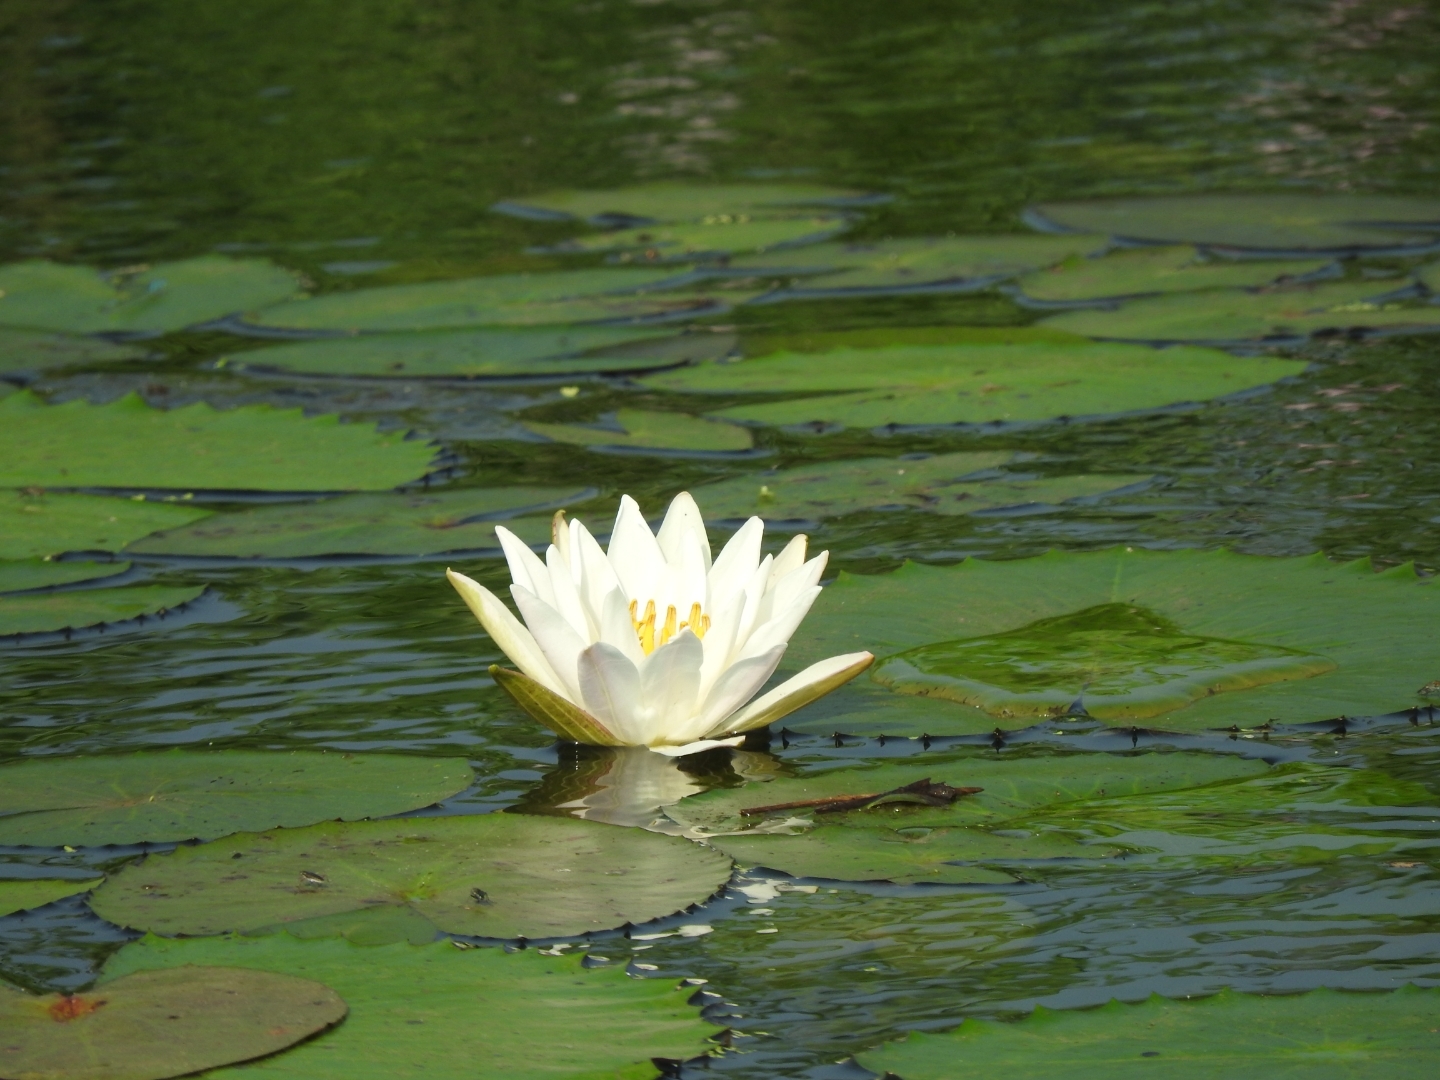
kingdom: Plantae
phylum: Tracheophyta
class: Magnoliopsida
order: Nymphaeales
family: Nymphaeaceae
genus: Nymphaea
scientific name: Nymphaea alba
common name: White water-lily
